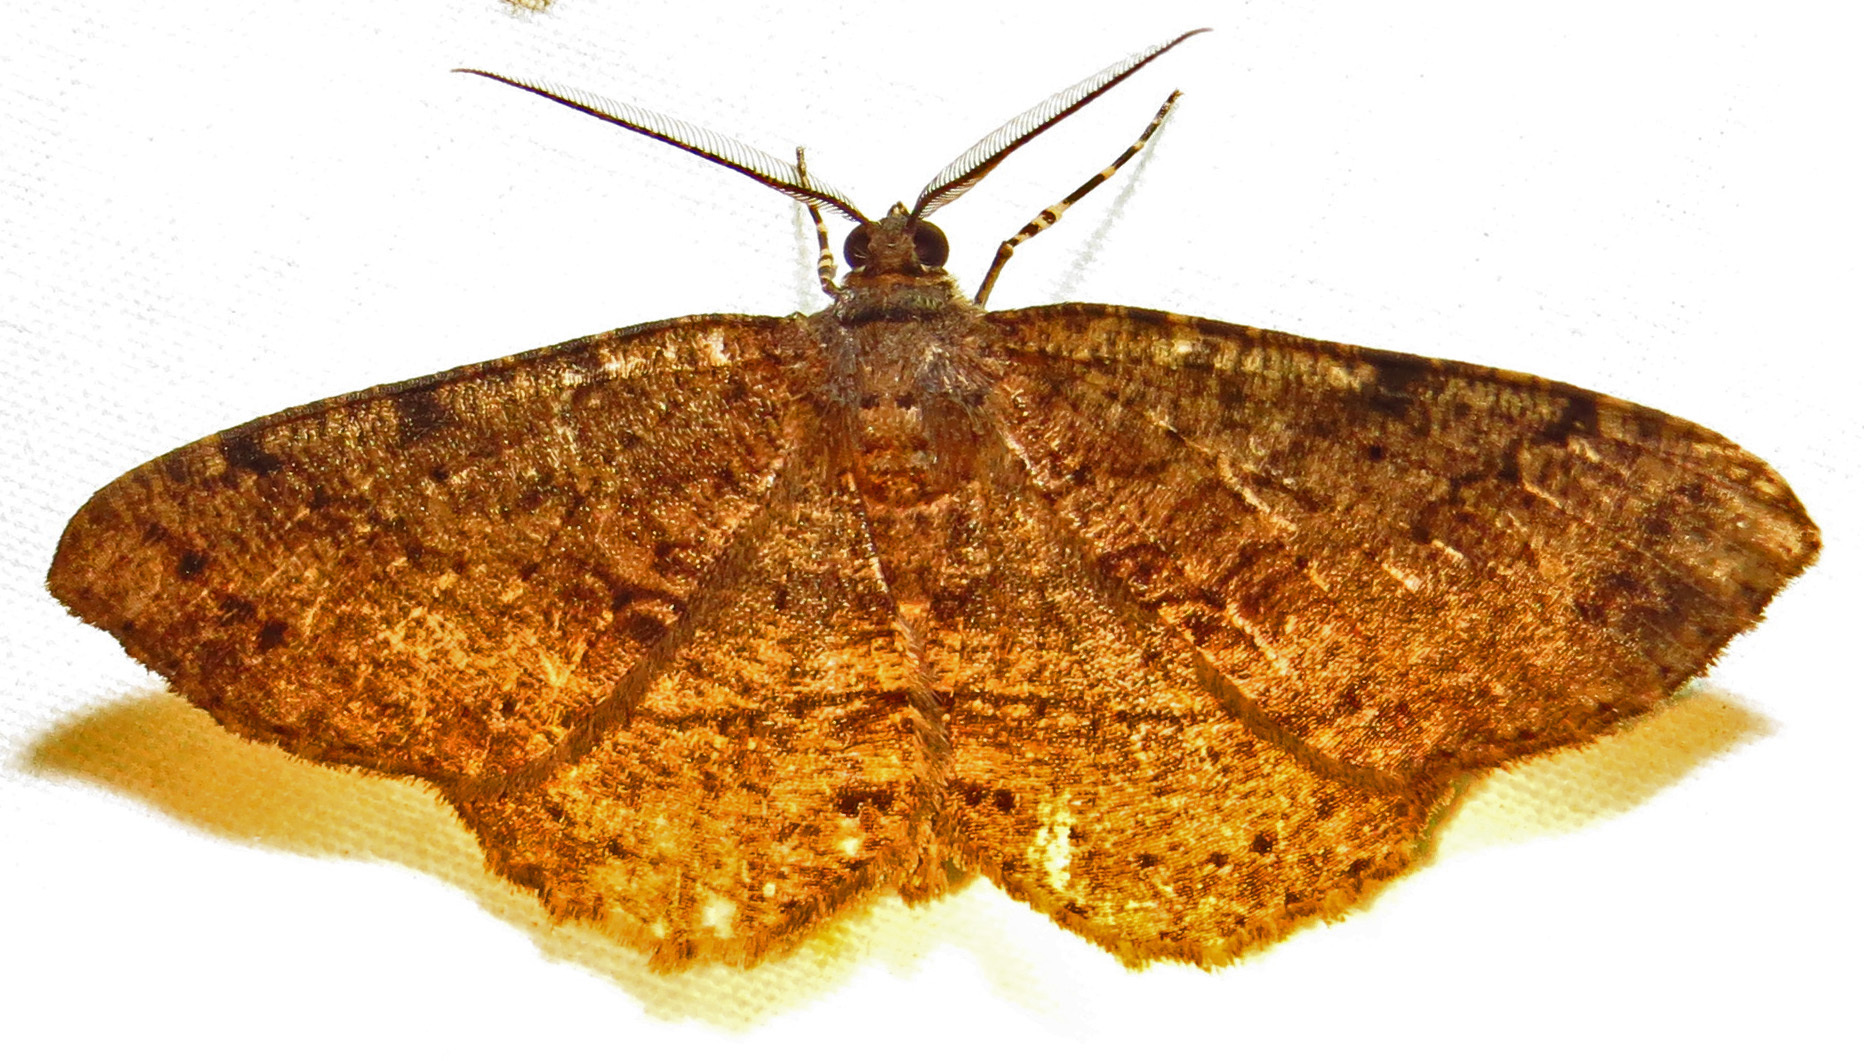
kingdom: Animalia
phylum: Arthropoda
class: Insecta
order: Lepidoptera
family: Geometridae
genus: Melanolophia
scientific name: Melanolophia canadaria
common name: Canadian melanolophia
